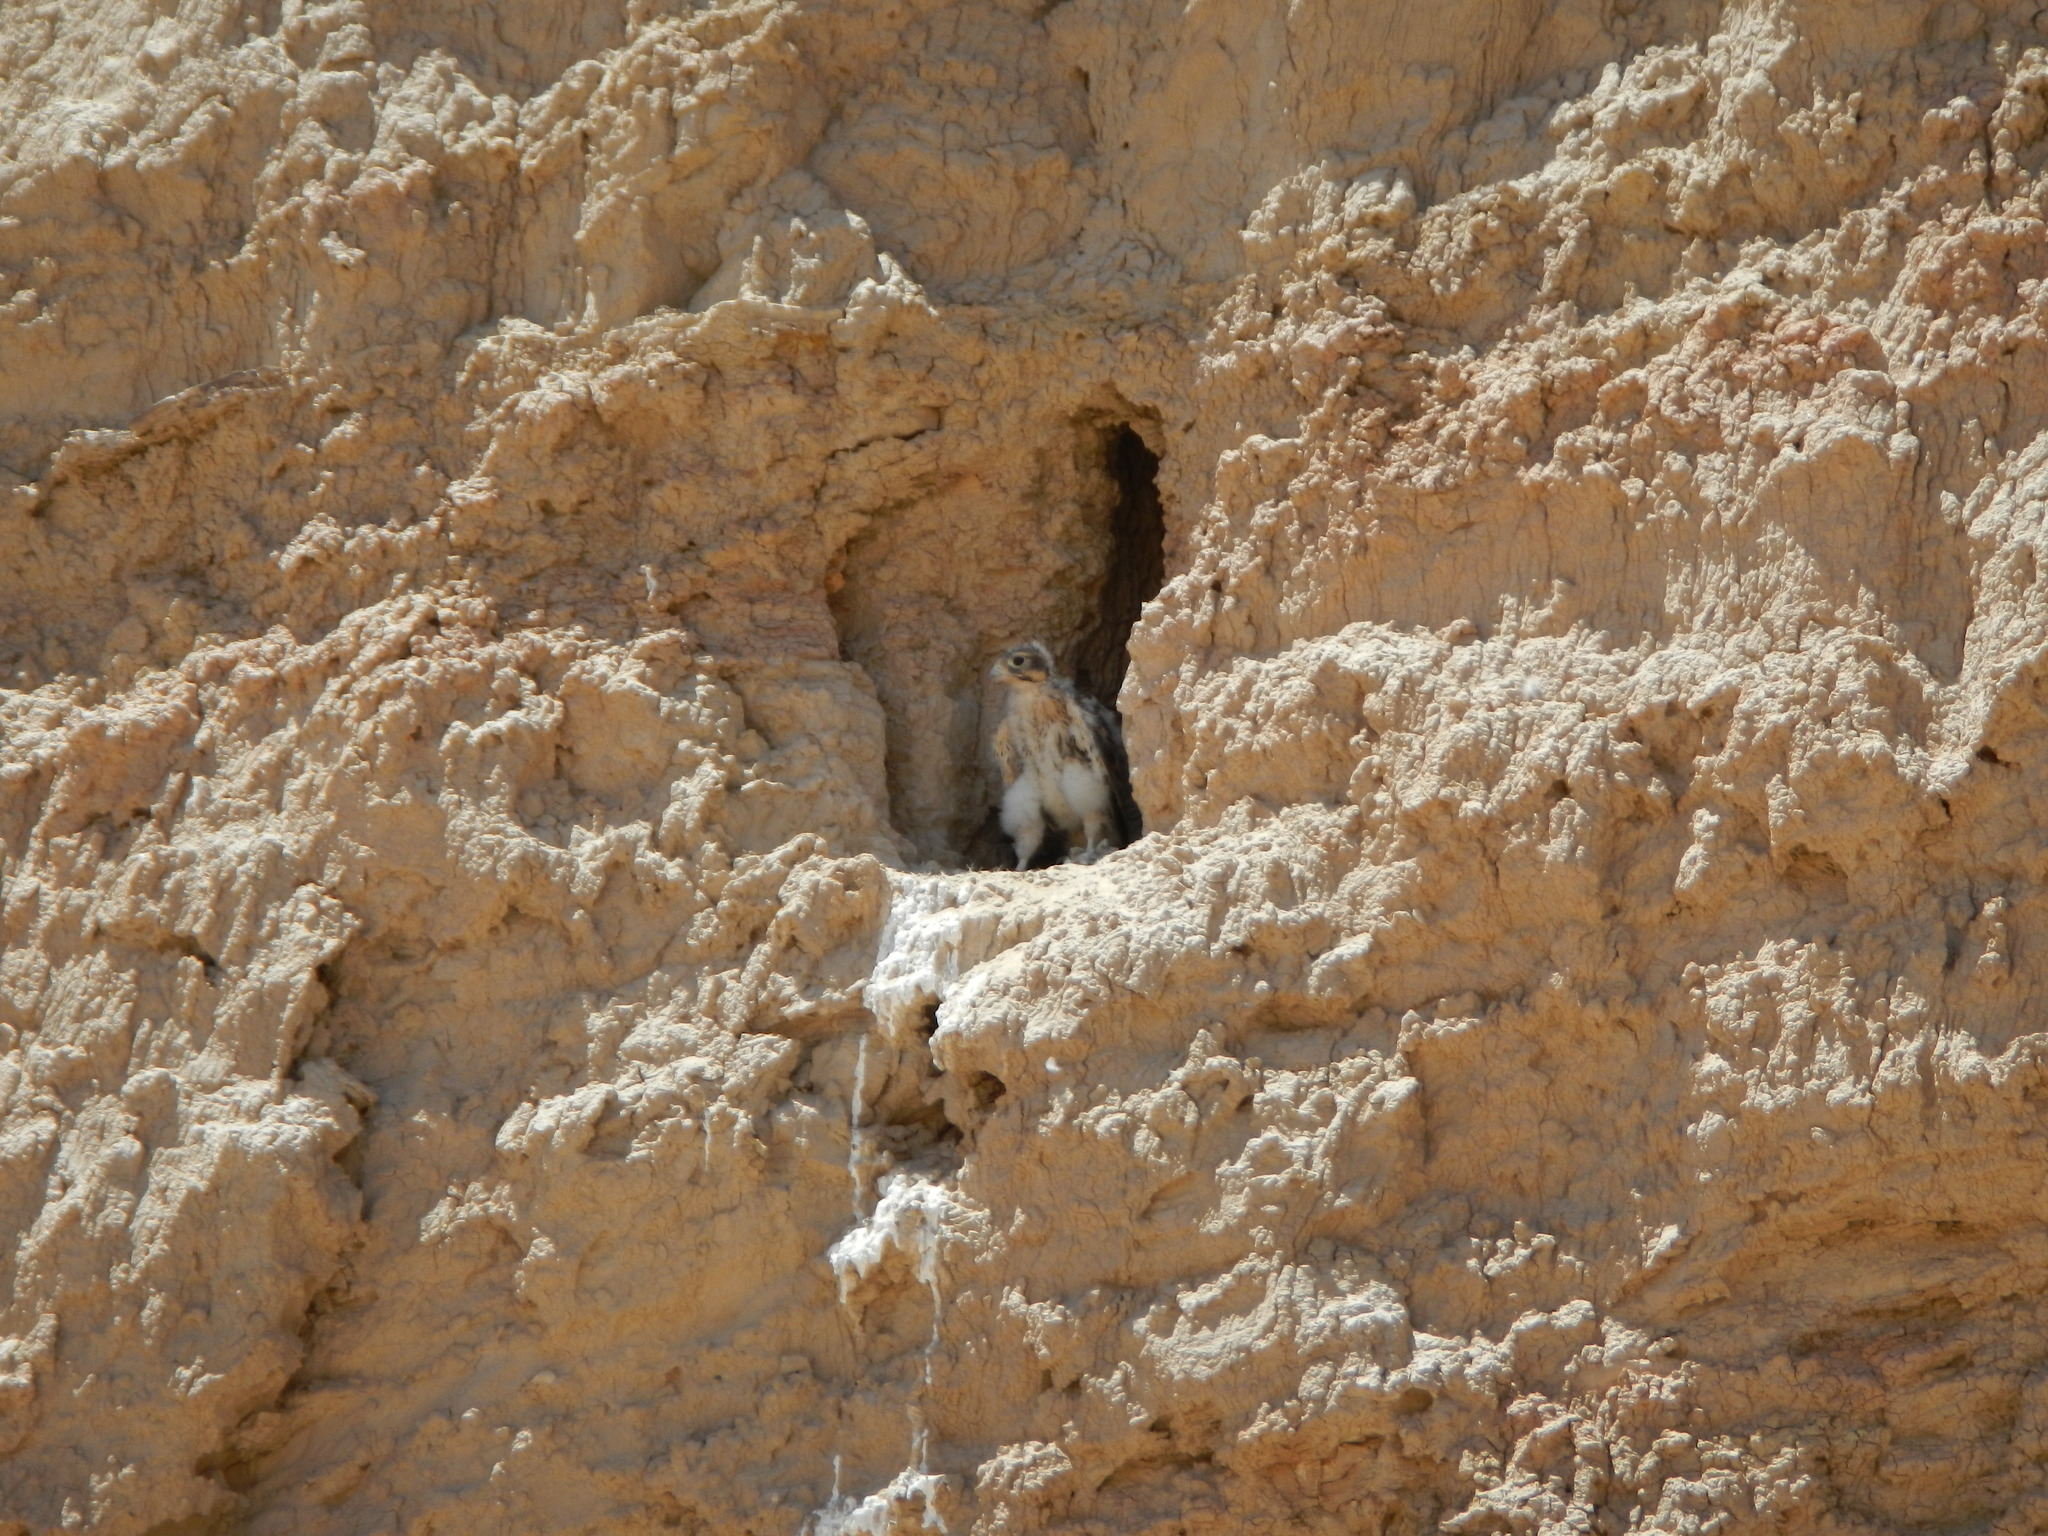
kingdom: Animalia
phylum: Chordata
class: Aves
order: Falconiformes
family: Falconidae
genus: Falco
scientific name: Falco mexicanus
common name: Prairie falcon
